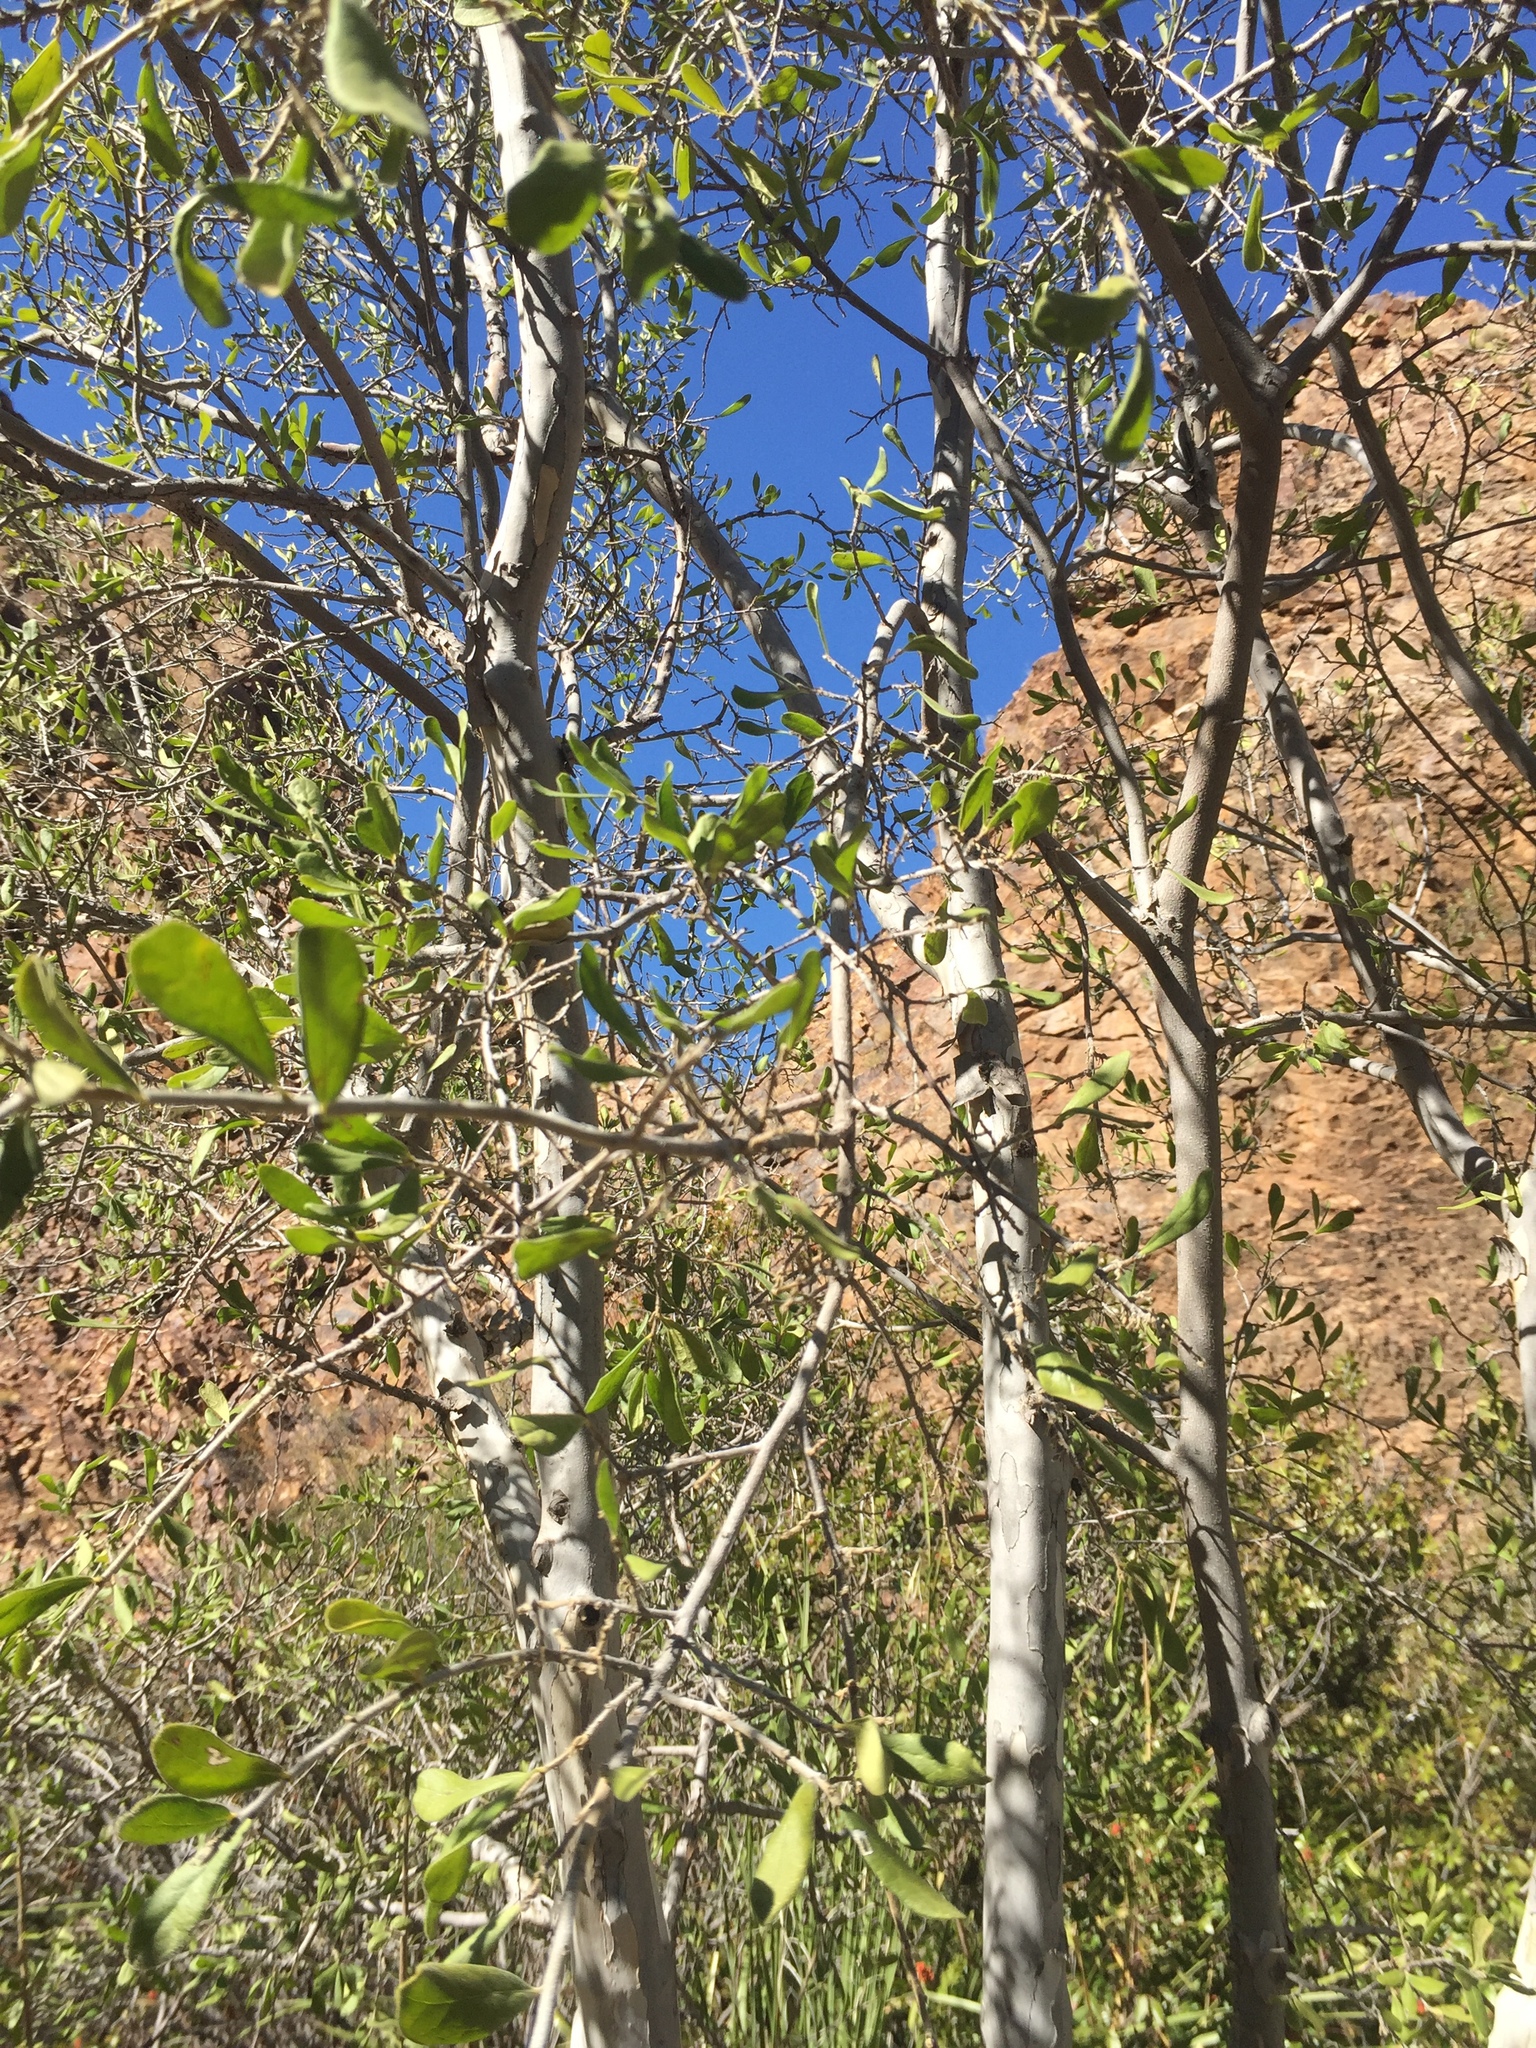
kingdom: Plantae
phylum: Tracheophyta
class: Magnoliopsida
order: Ericales
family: Ebenaceae
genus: Diospyros
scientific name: Diospyros texana
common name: Texas persimmon
